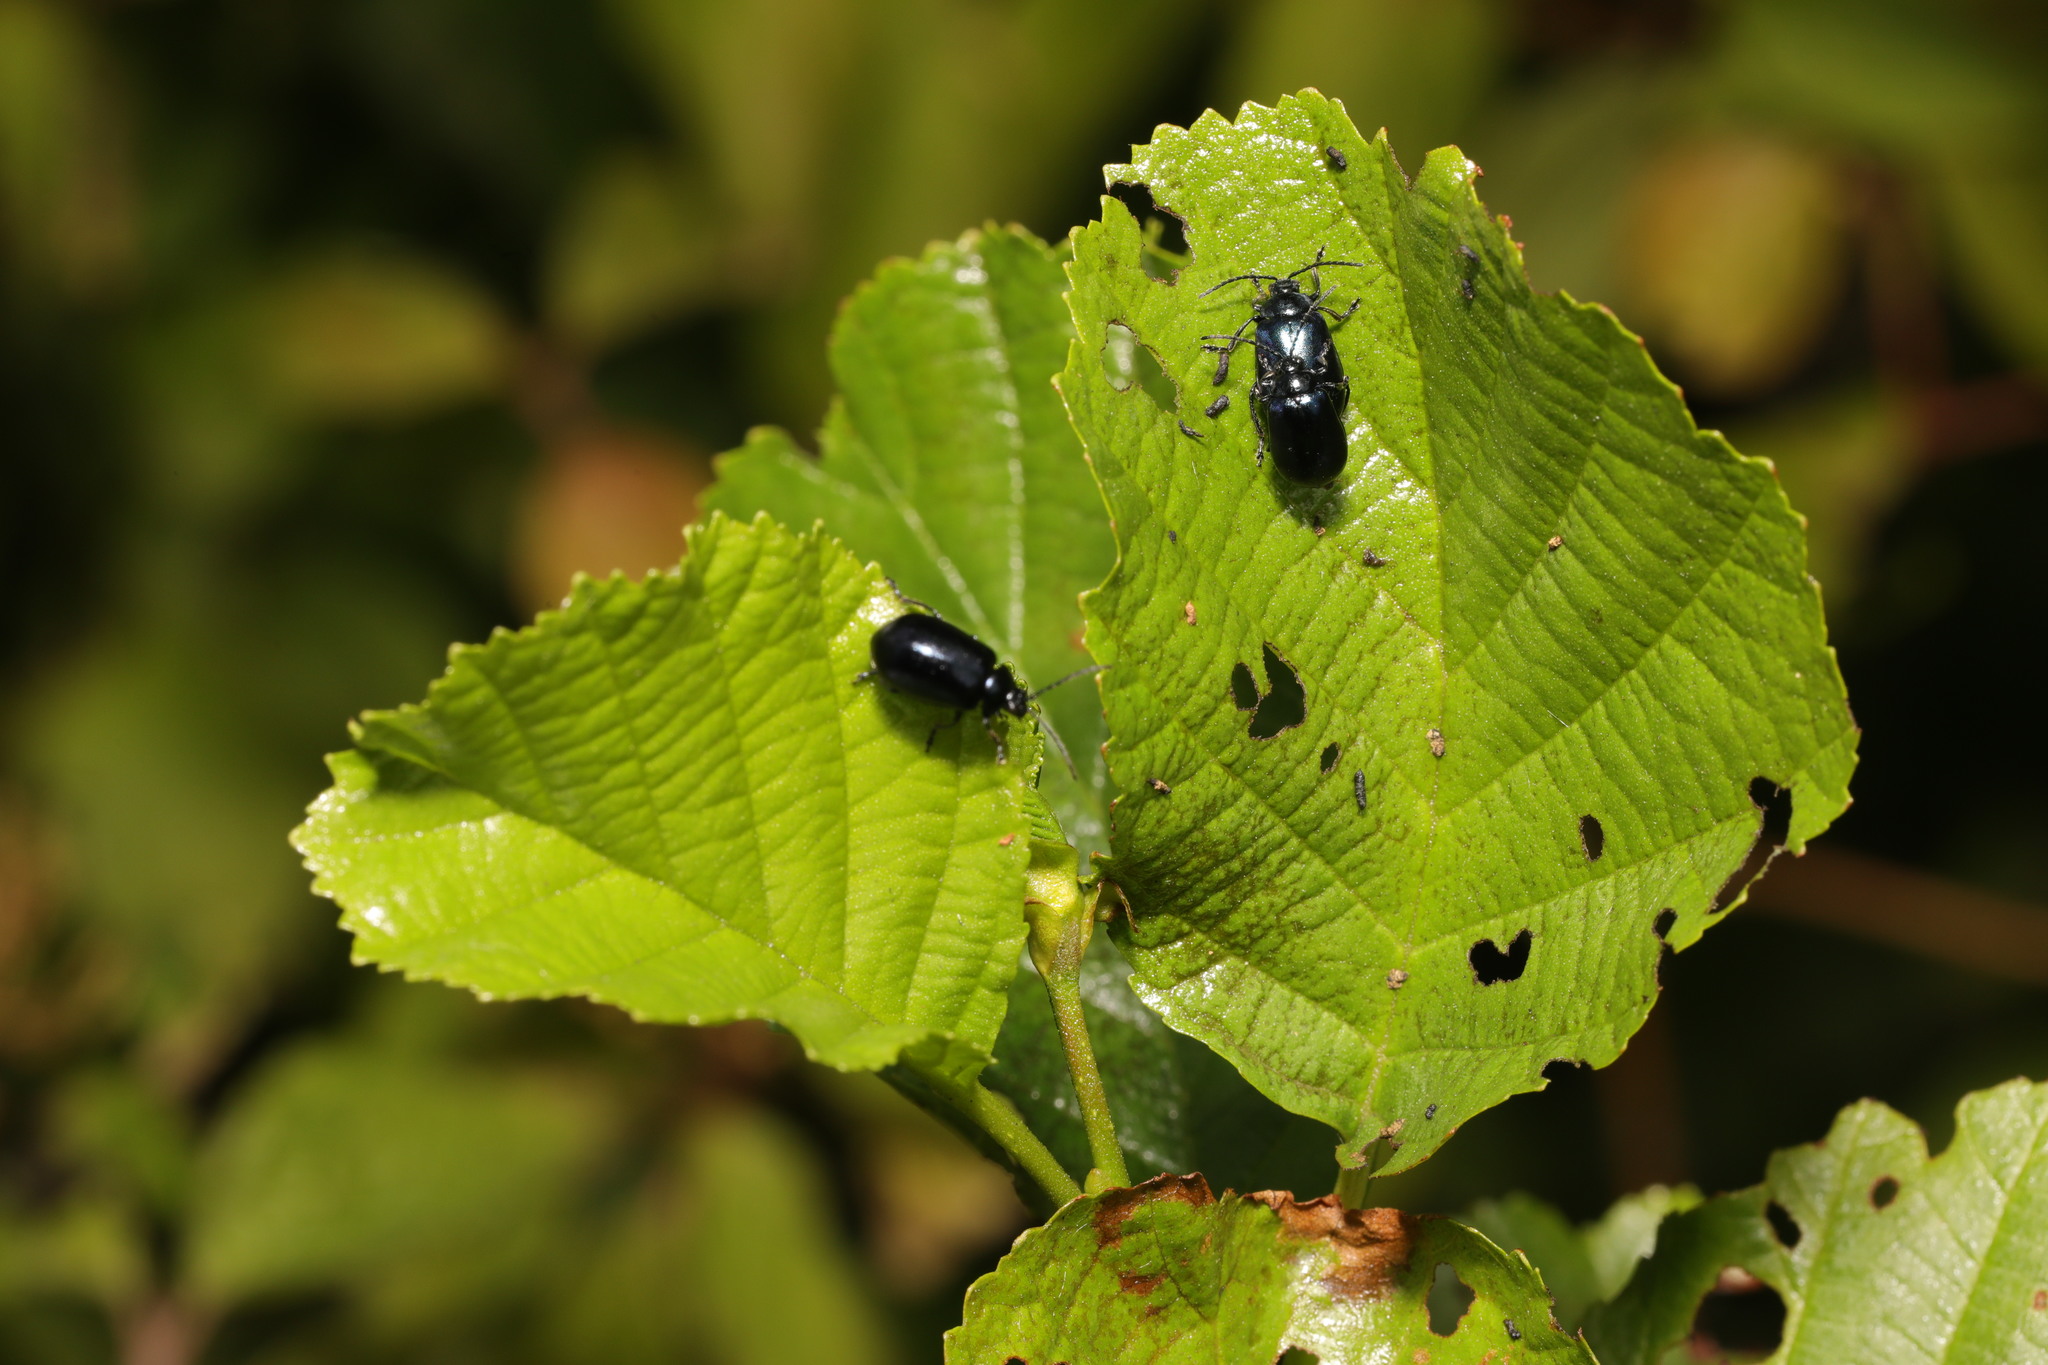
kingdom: Animalia
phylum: Arthropoda
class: Insecta
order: Coleoptera
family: Chrysomelidae
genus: Agelastica
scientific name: Agelastica alni
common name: Alder leaf beetle
